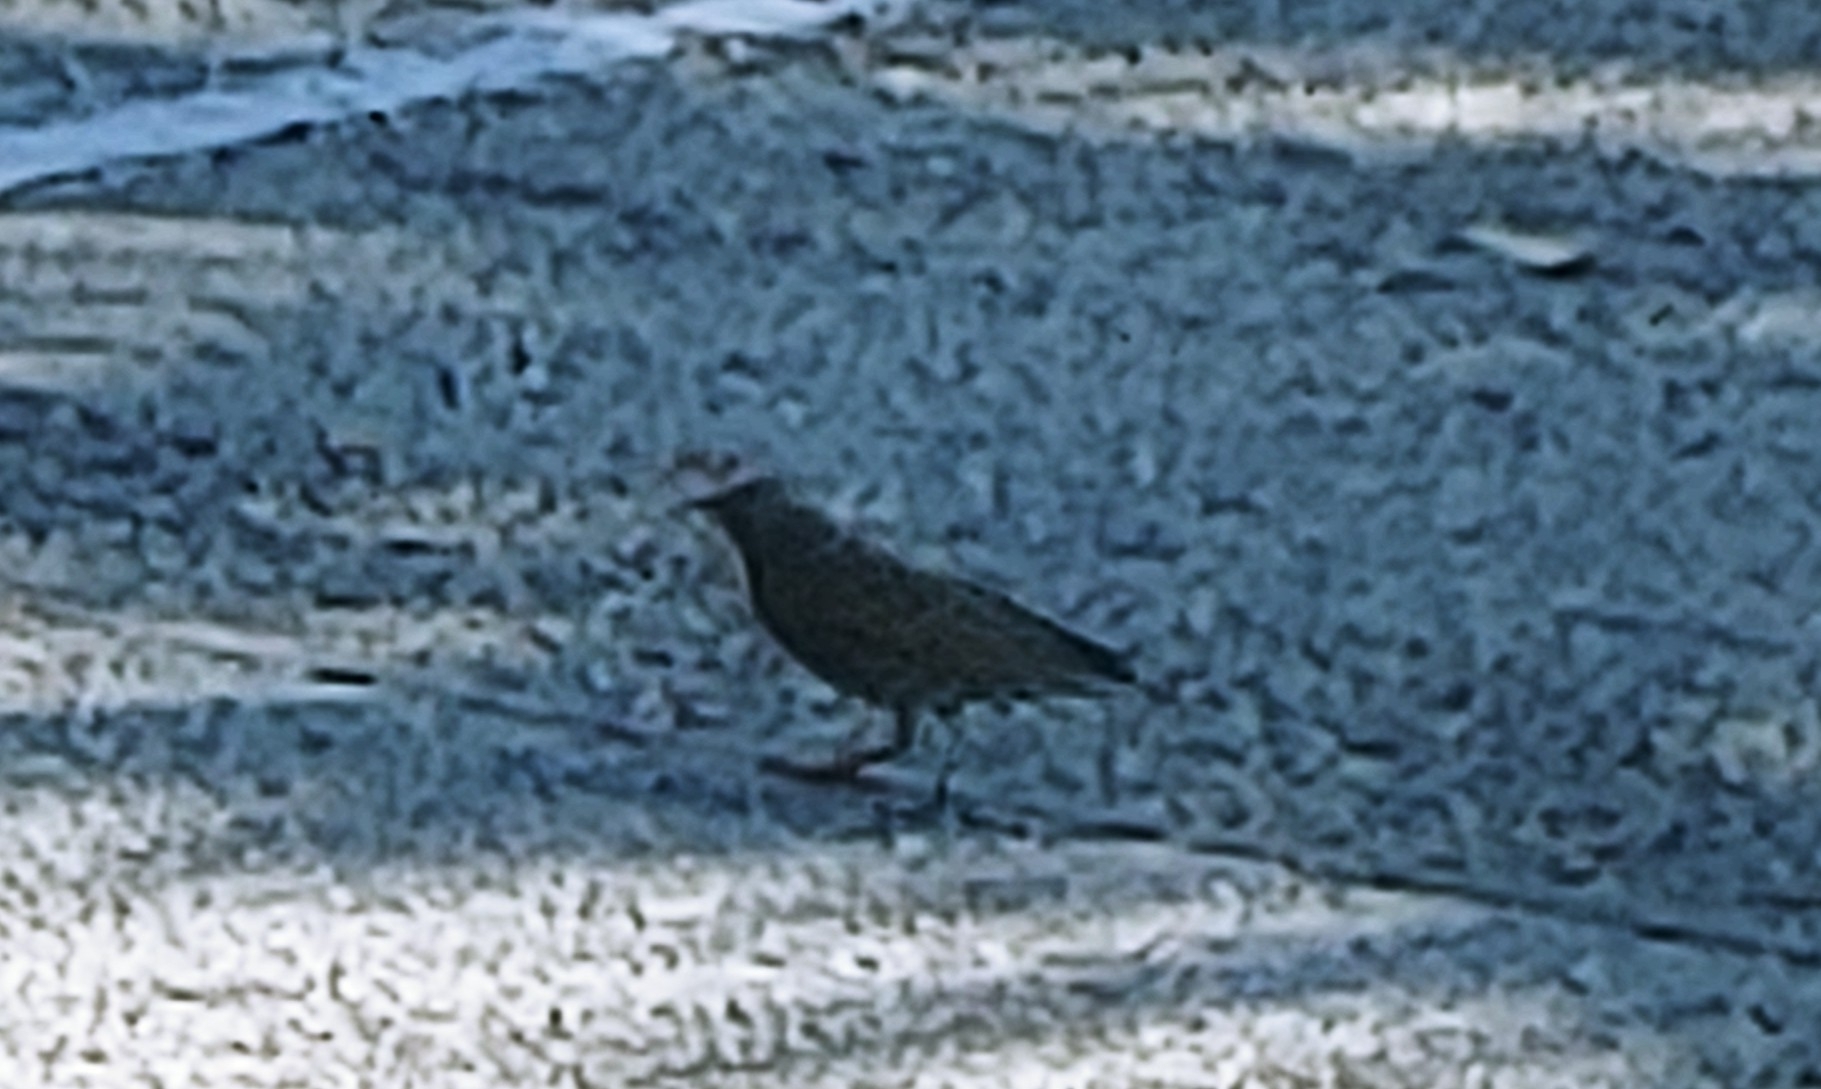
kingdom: Animalia
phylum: Chordata
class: Aves
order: Passeriformes
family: Sturnidae
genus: Sturnus
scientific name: Sturnus vulgaris
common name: Common starling
